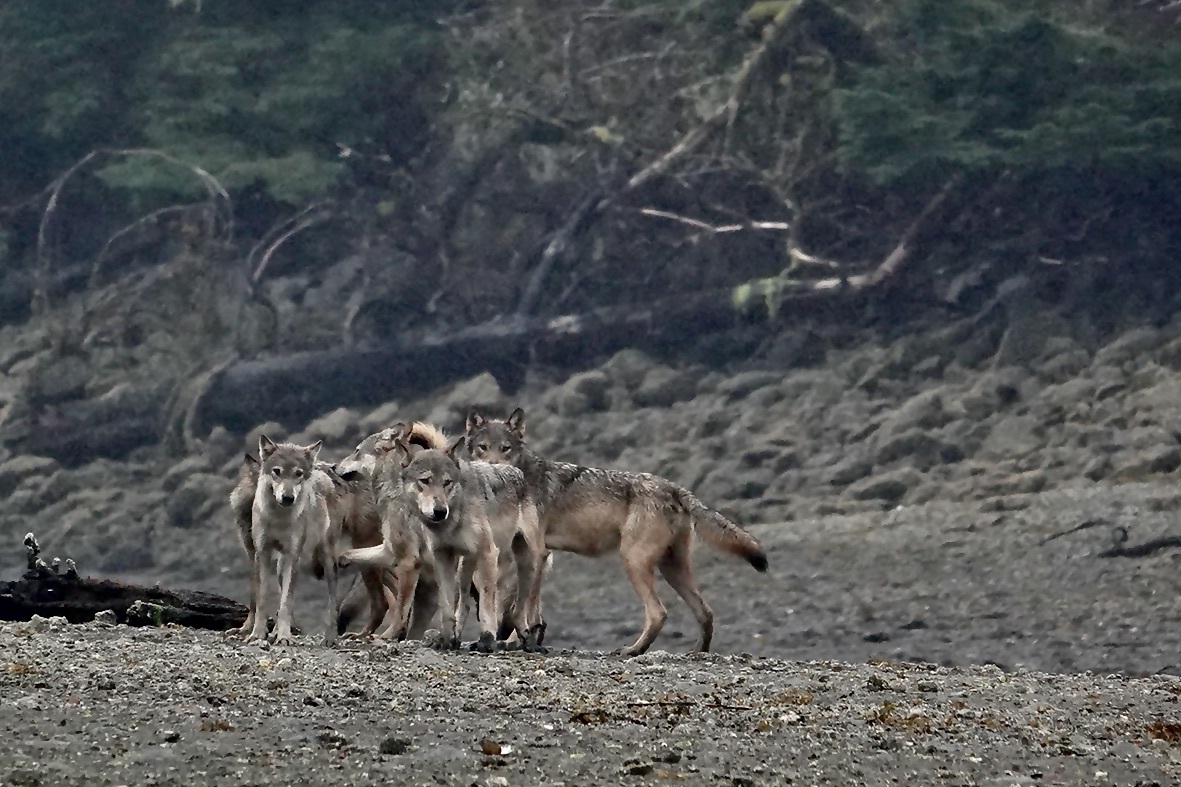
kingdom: Animalia
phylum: Chordata
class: Mammalia
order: Carnivora
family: Canidae
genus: Canis
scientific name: Canis lupus
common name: Gray wolf
